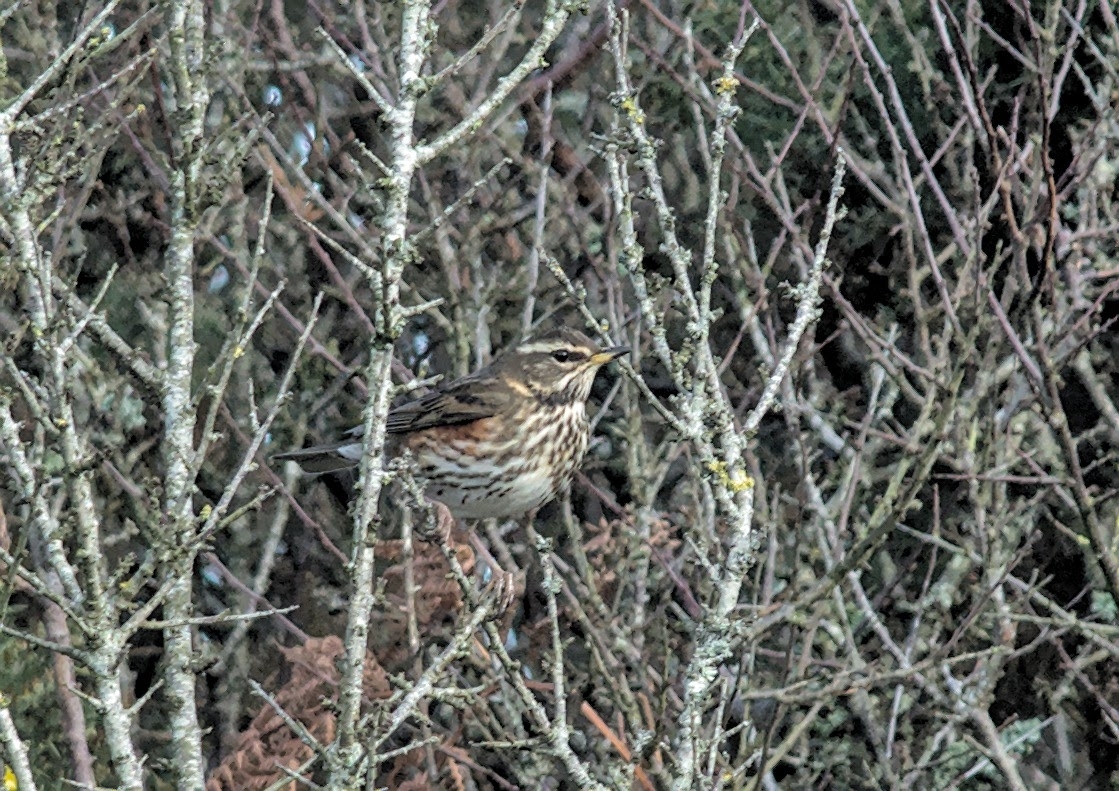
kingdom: Animalia
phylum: Chordata
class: Aves
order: Passeriformes
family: Turdidae
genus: Turdus
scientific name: Turdus iliacus
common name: Redwing
